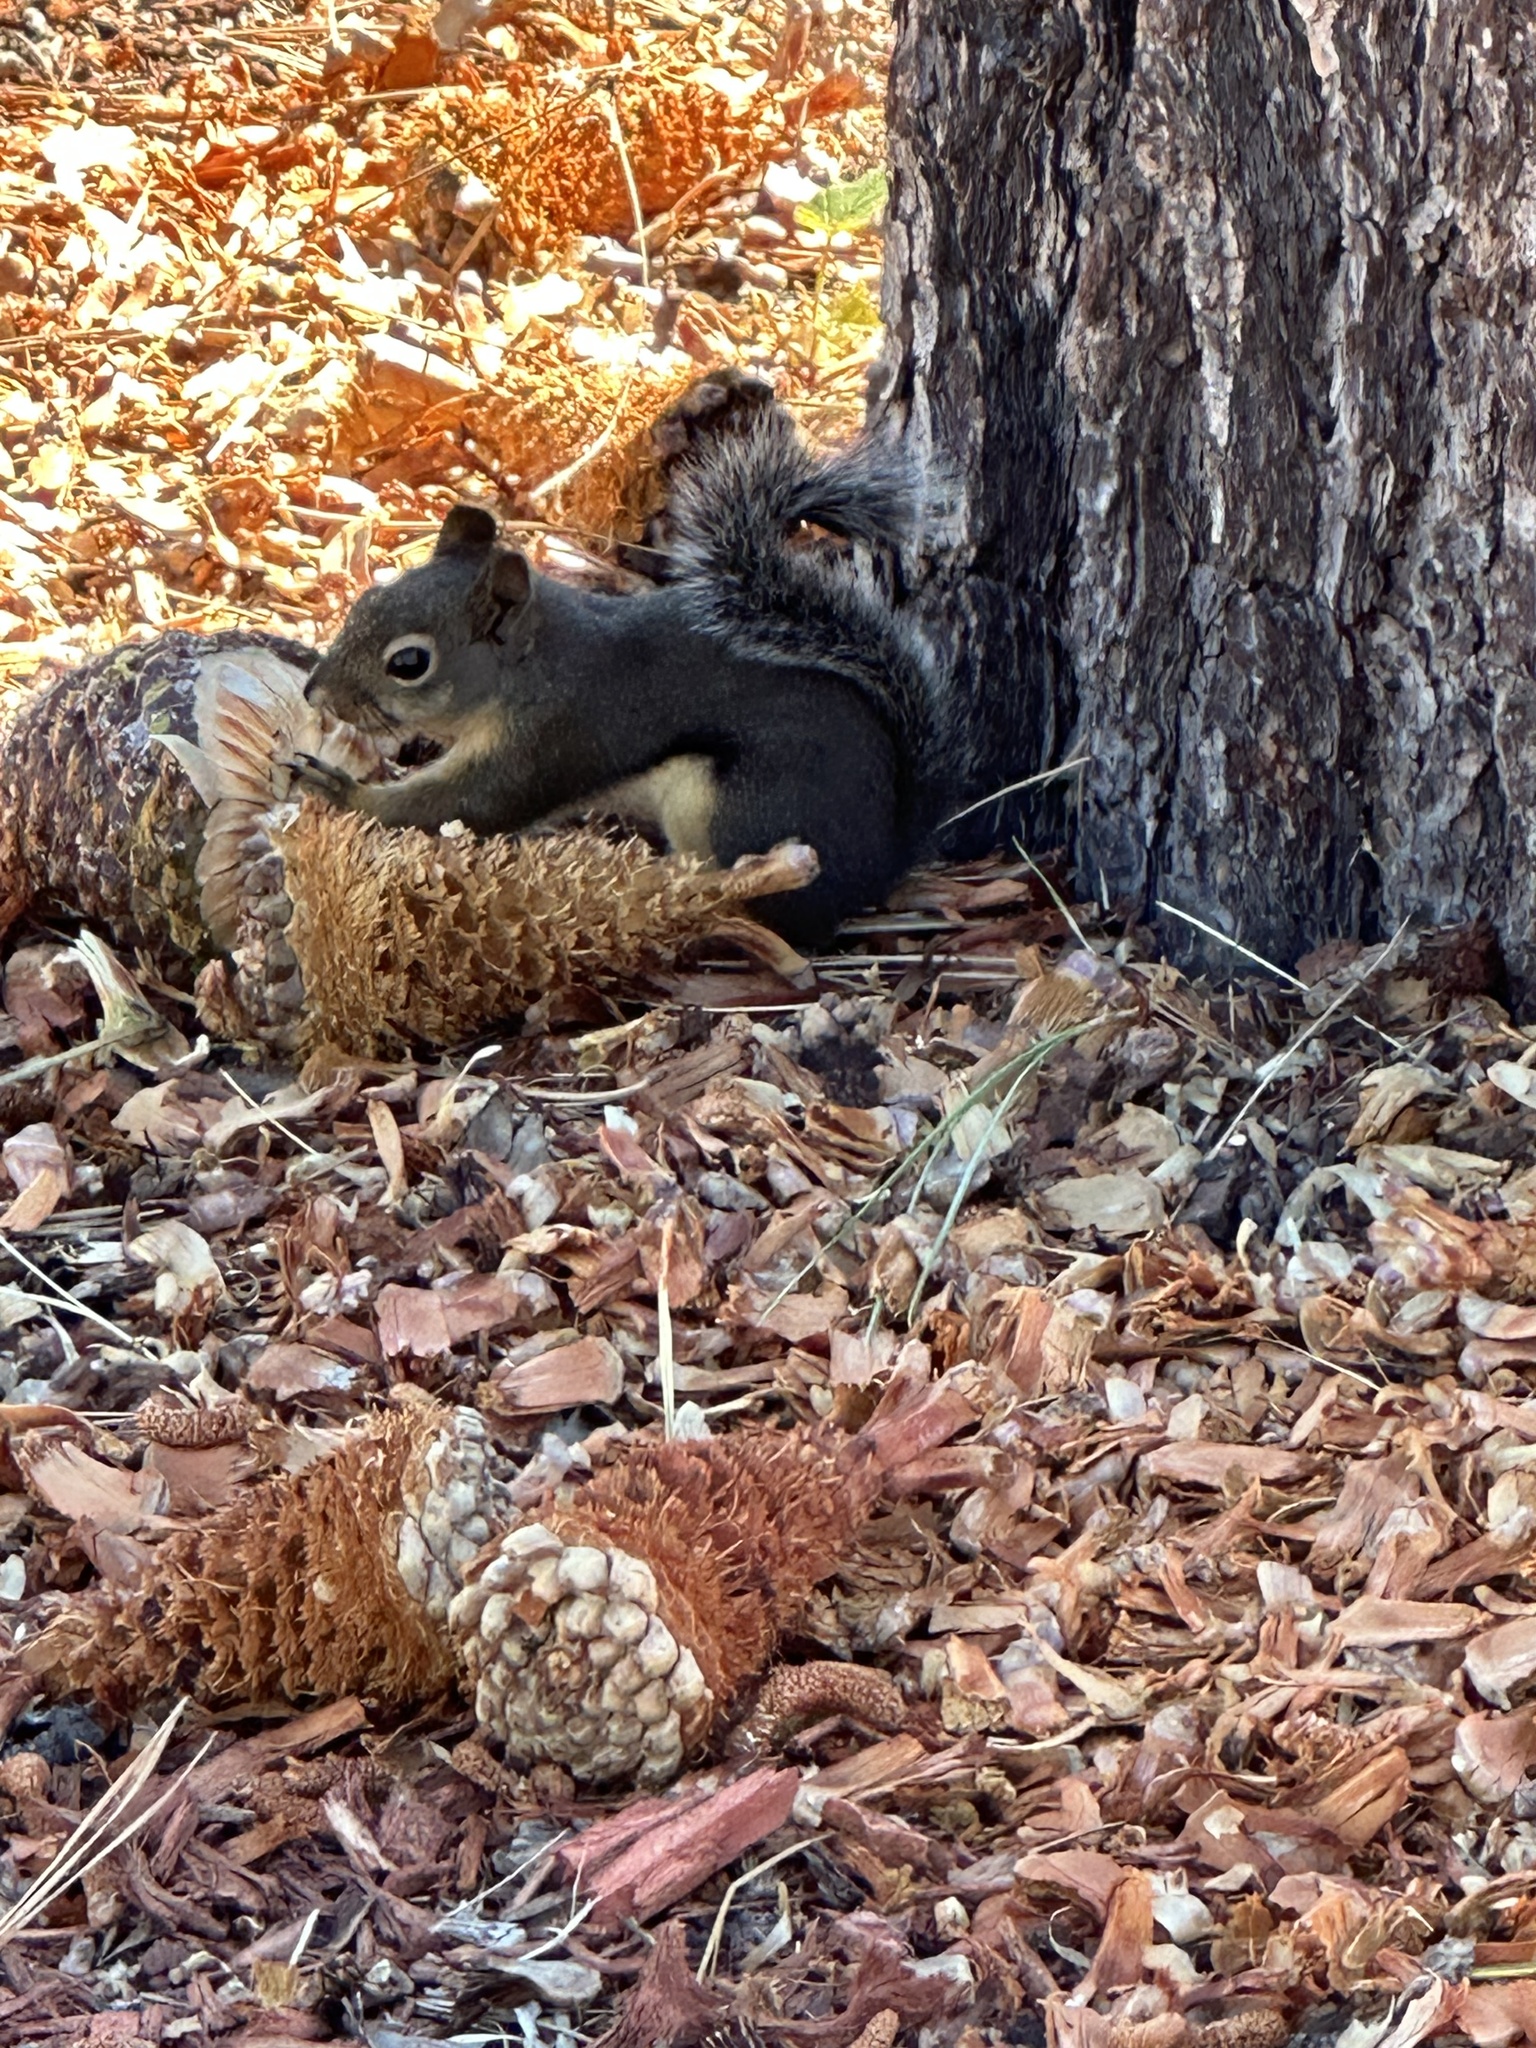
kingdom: Animalia
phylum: Chordata
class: Mammalia
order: Rodentia
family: Sciuridae
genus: Tamiasciurus
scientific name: Tamiasciurus douglasii
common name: Douglas's squirrel
